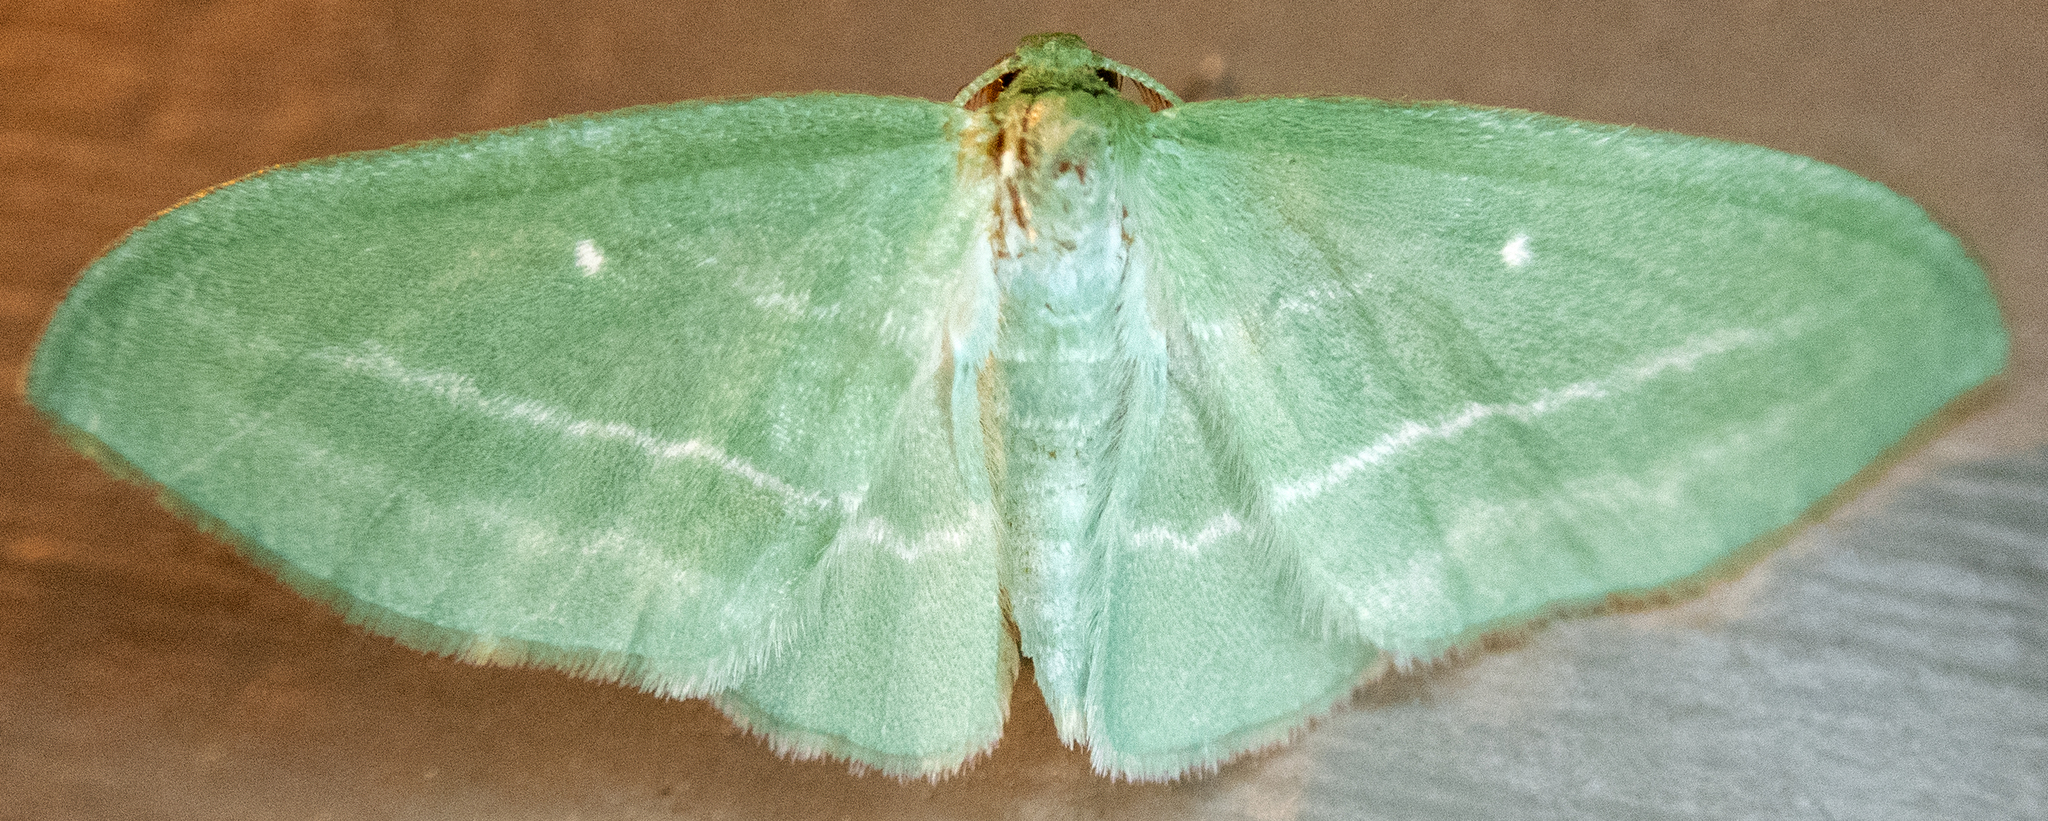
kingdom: Animalia
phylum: Arthropoda
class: Insecta
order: Lepidoptera
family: Geometridae
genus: Dyspteris
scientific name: Dyspteris abortivaria
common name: Bad-wing
